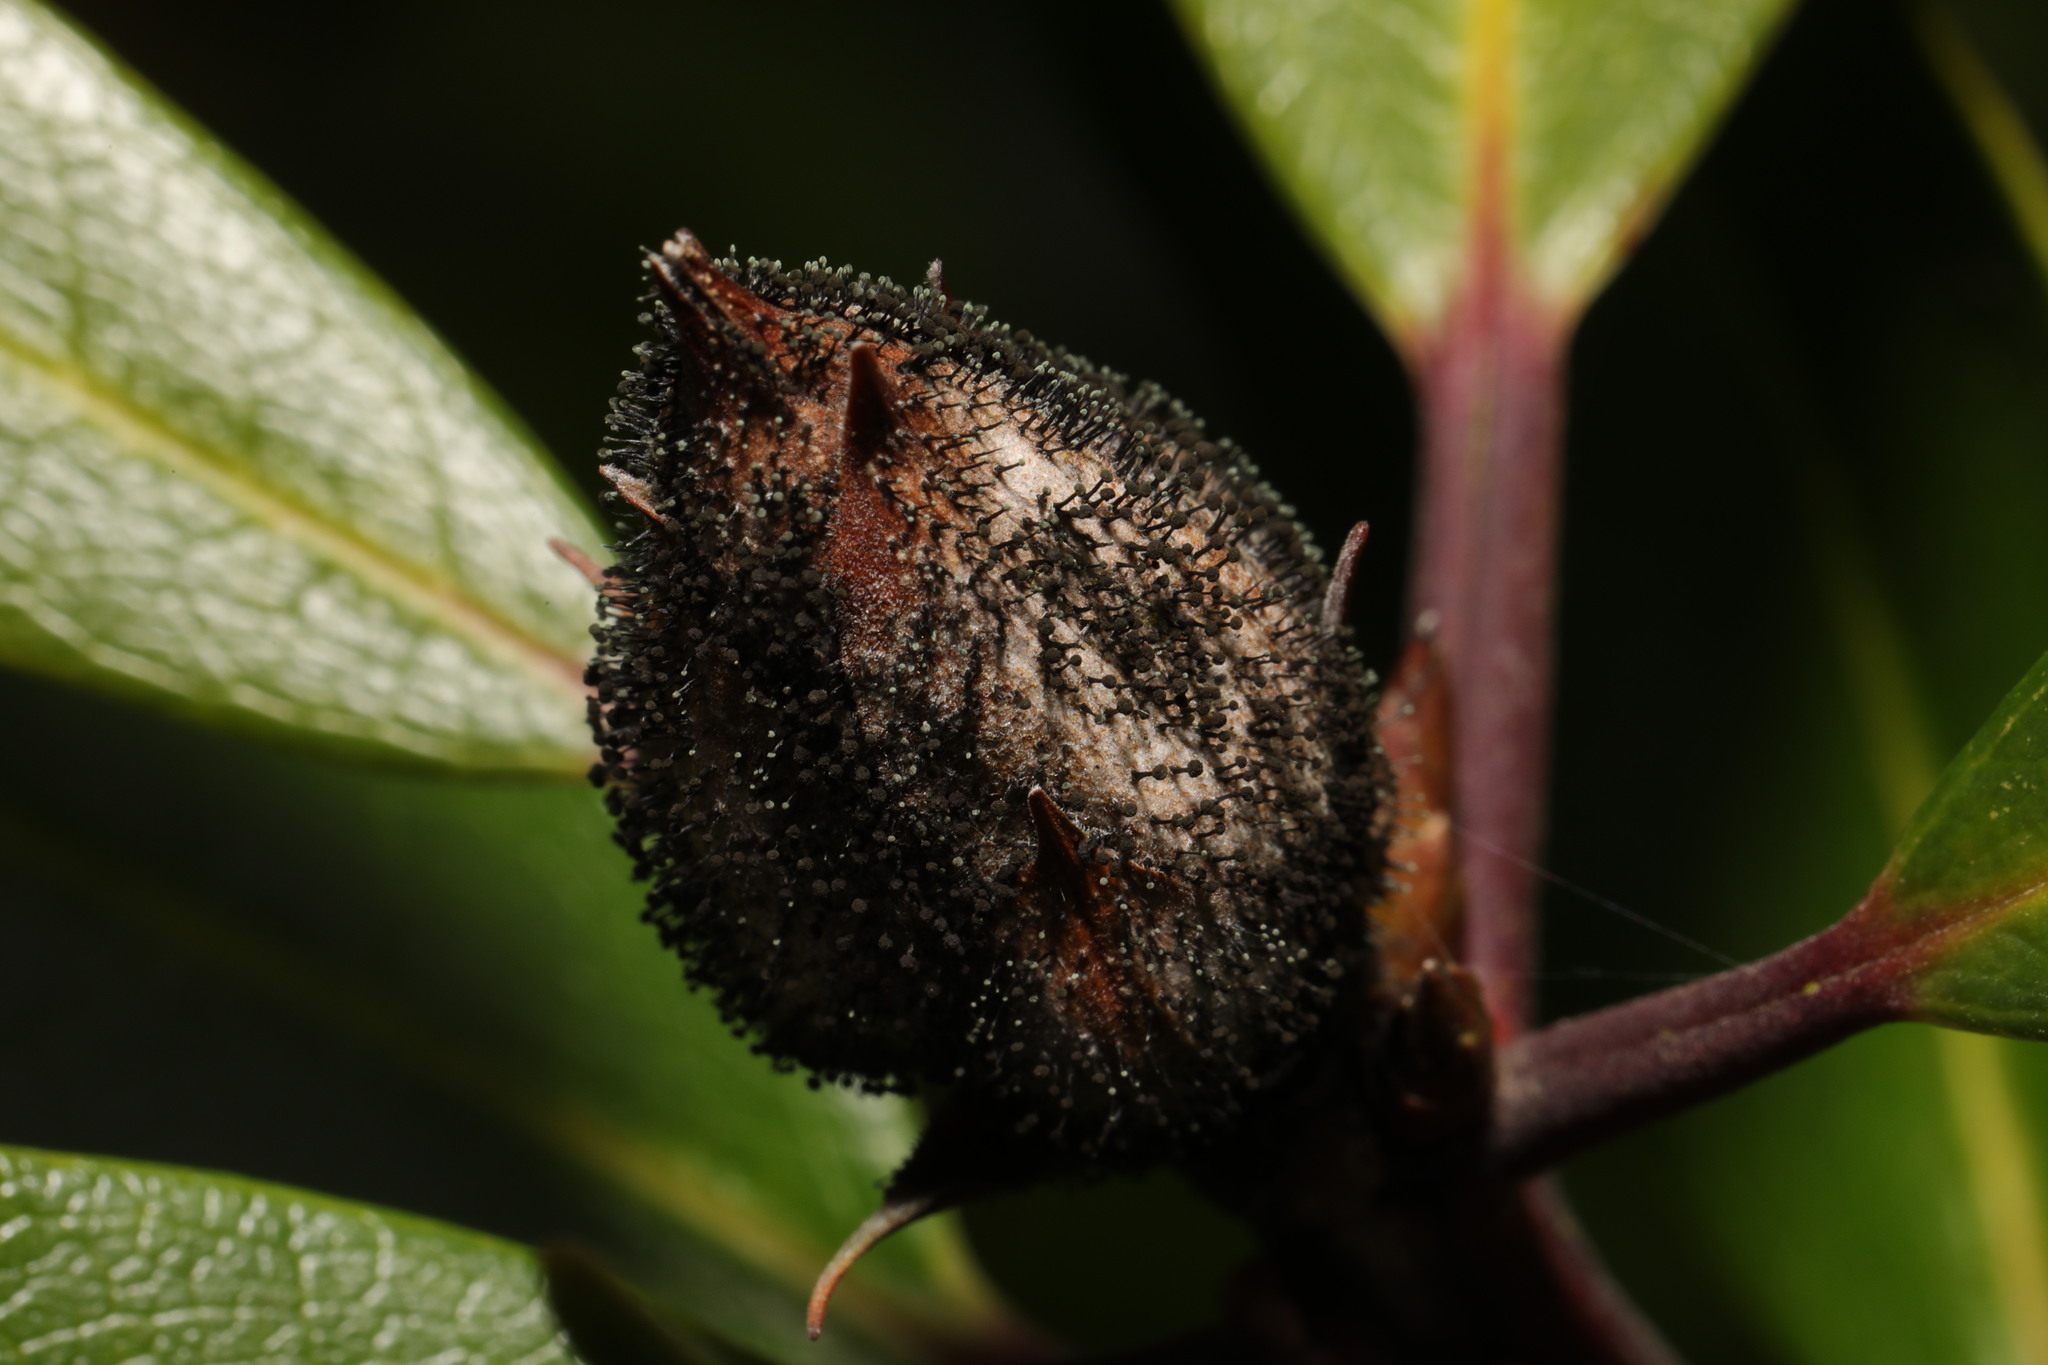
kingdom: Fungi
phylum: Ascomycota
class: Dothideomycetes
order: Pleosporales
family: Melanommataceae
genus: Seifertia
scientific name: Seifertia azaleae
